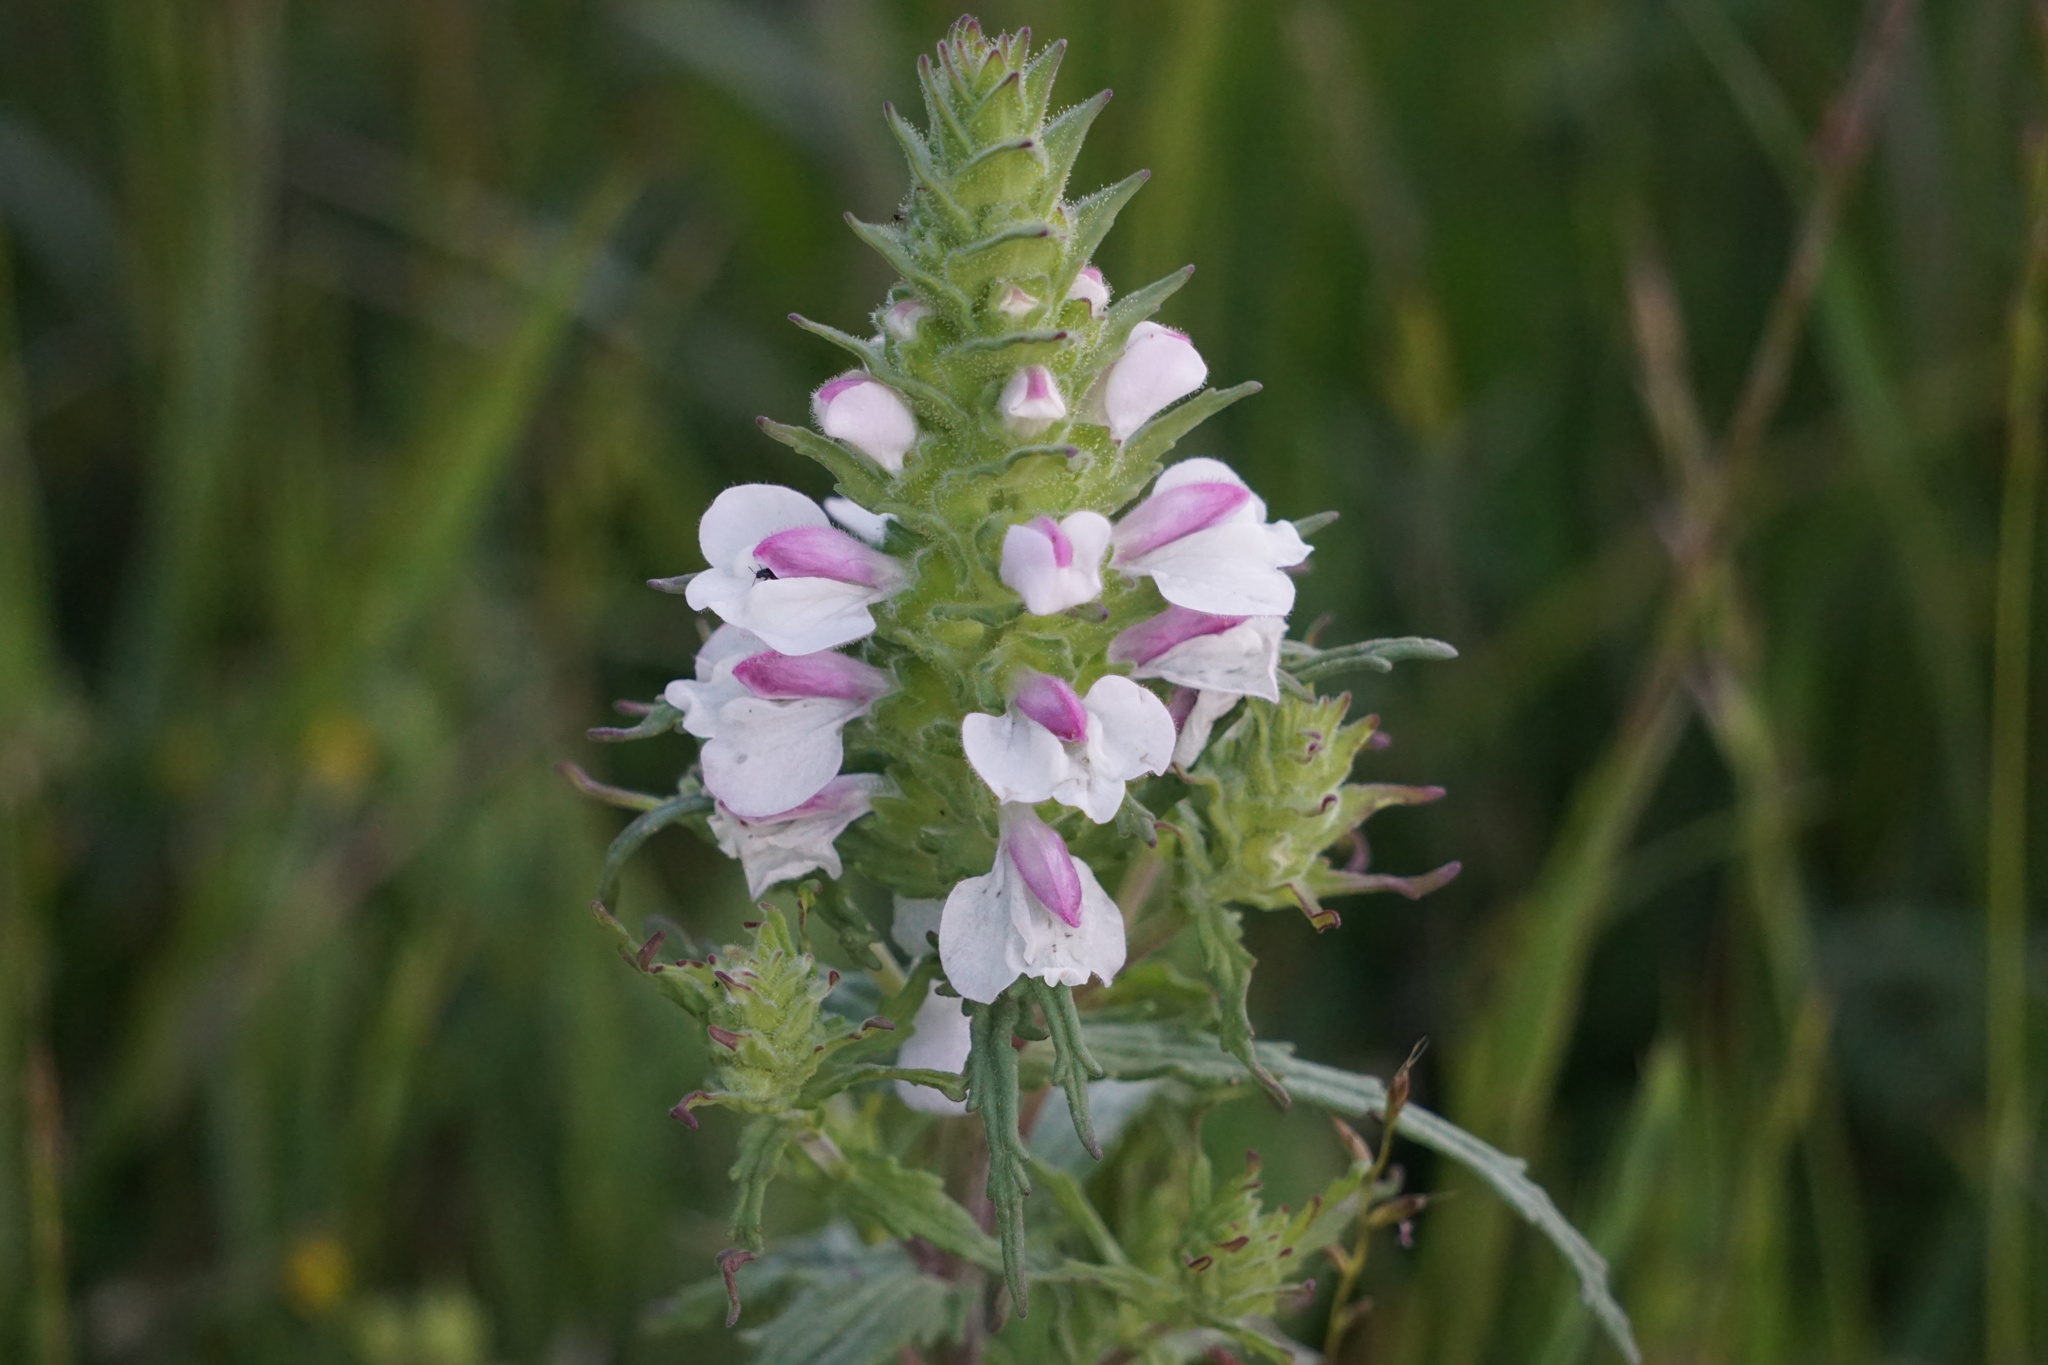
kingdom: Plantae
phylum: Tracheophyta
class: Magnoliopsida
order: Lamiales
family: Orobanchaceae
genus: Bellardia
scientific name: Bellardia trixago
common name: Mediterranean lineseed
